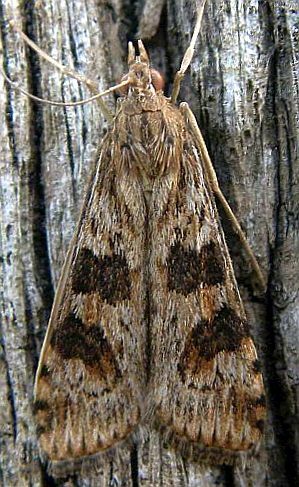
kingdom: Animalia
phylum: Arthropoda
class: Insecta
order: Lepidoptera
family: Crambidae
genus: Nomophila
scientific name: Nomophila nearctica
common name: American rush veneer
